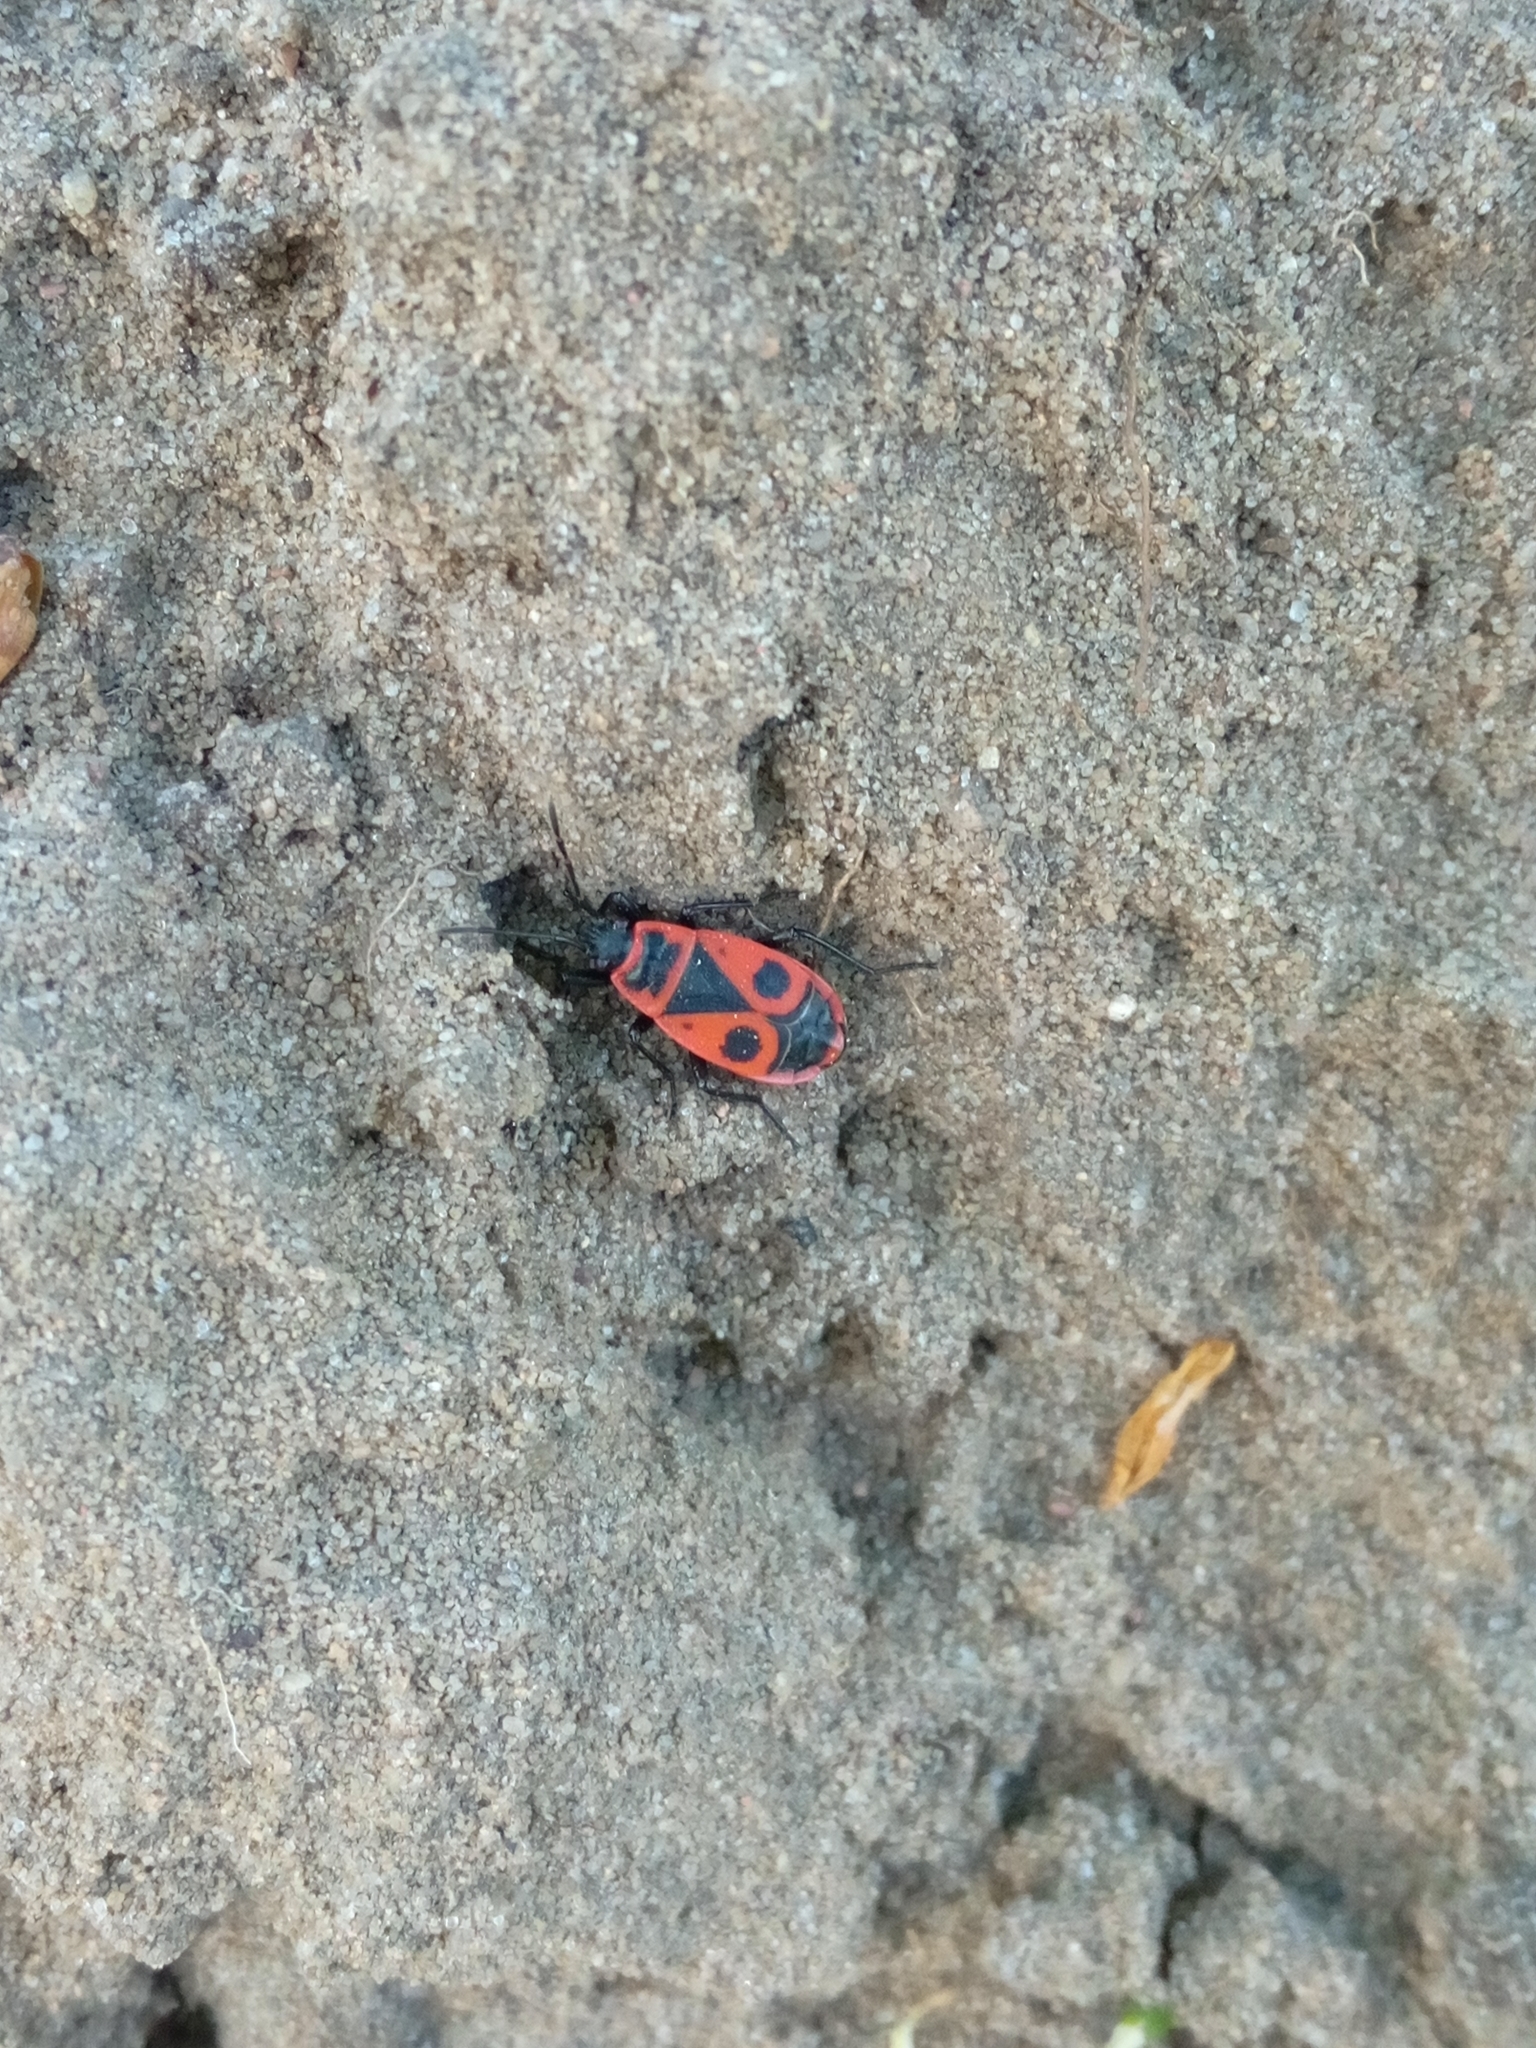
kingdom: Animalia
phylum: Arthropoda
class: Insecta
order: Hemiptera
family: Pyrrhocoridae
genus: Pyrrhocoris
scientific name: Pyrrhocoris apterus
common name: Firebug
